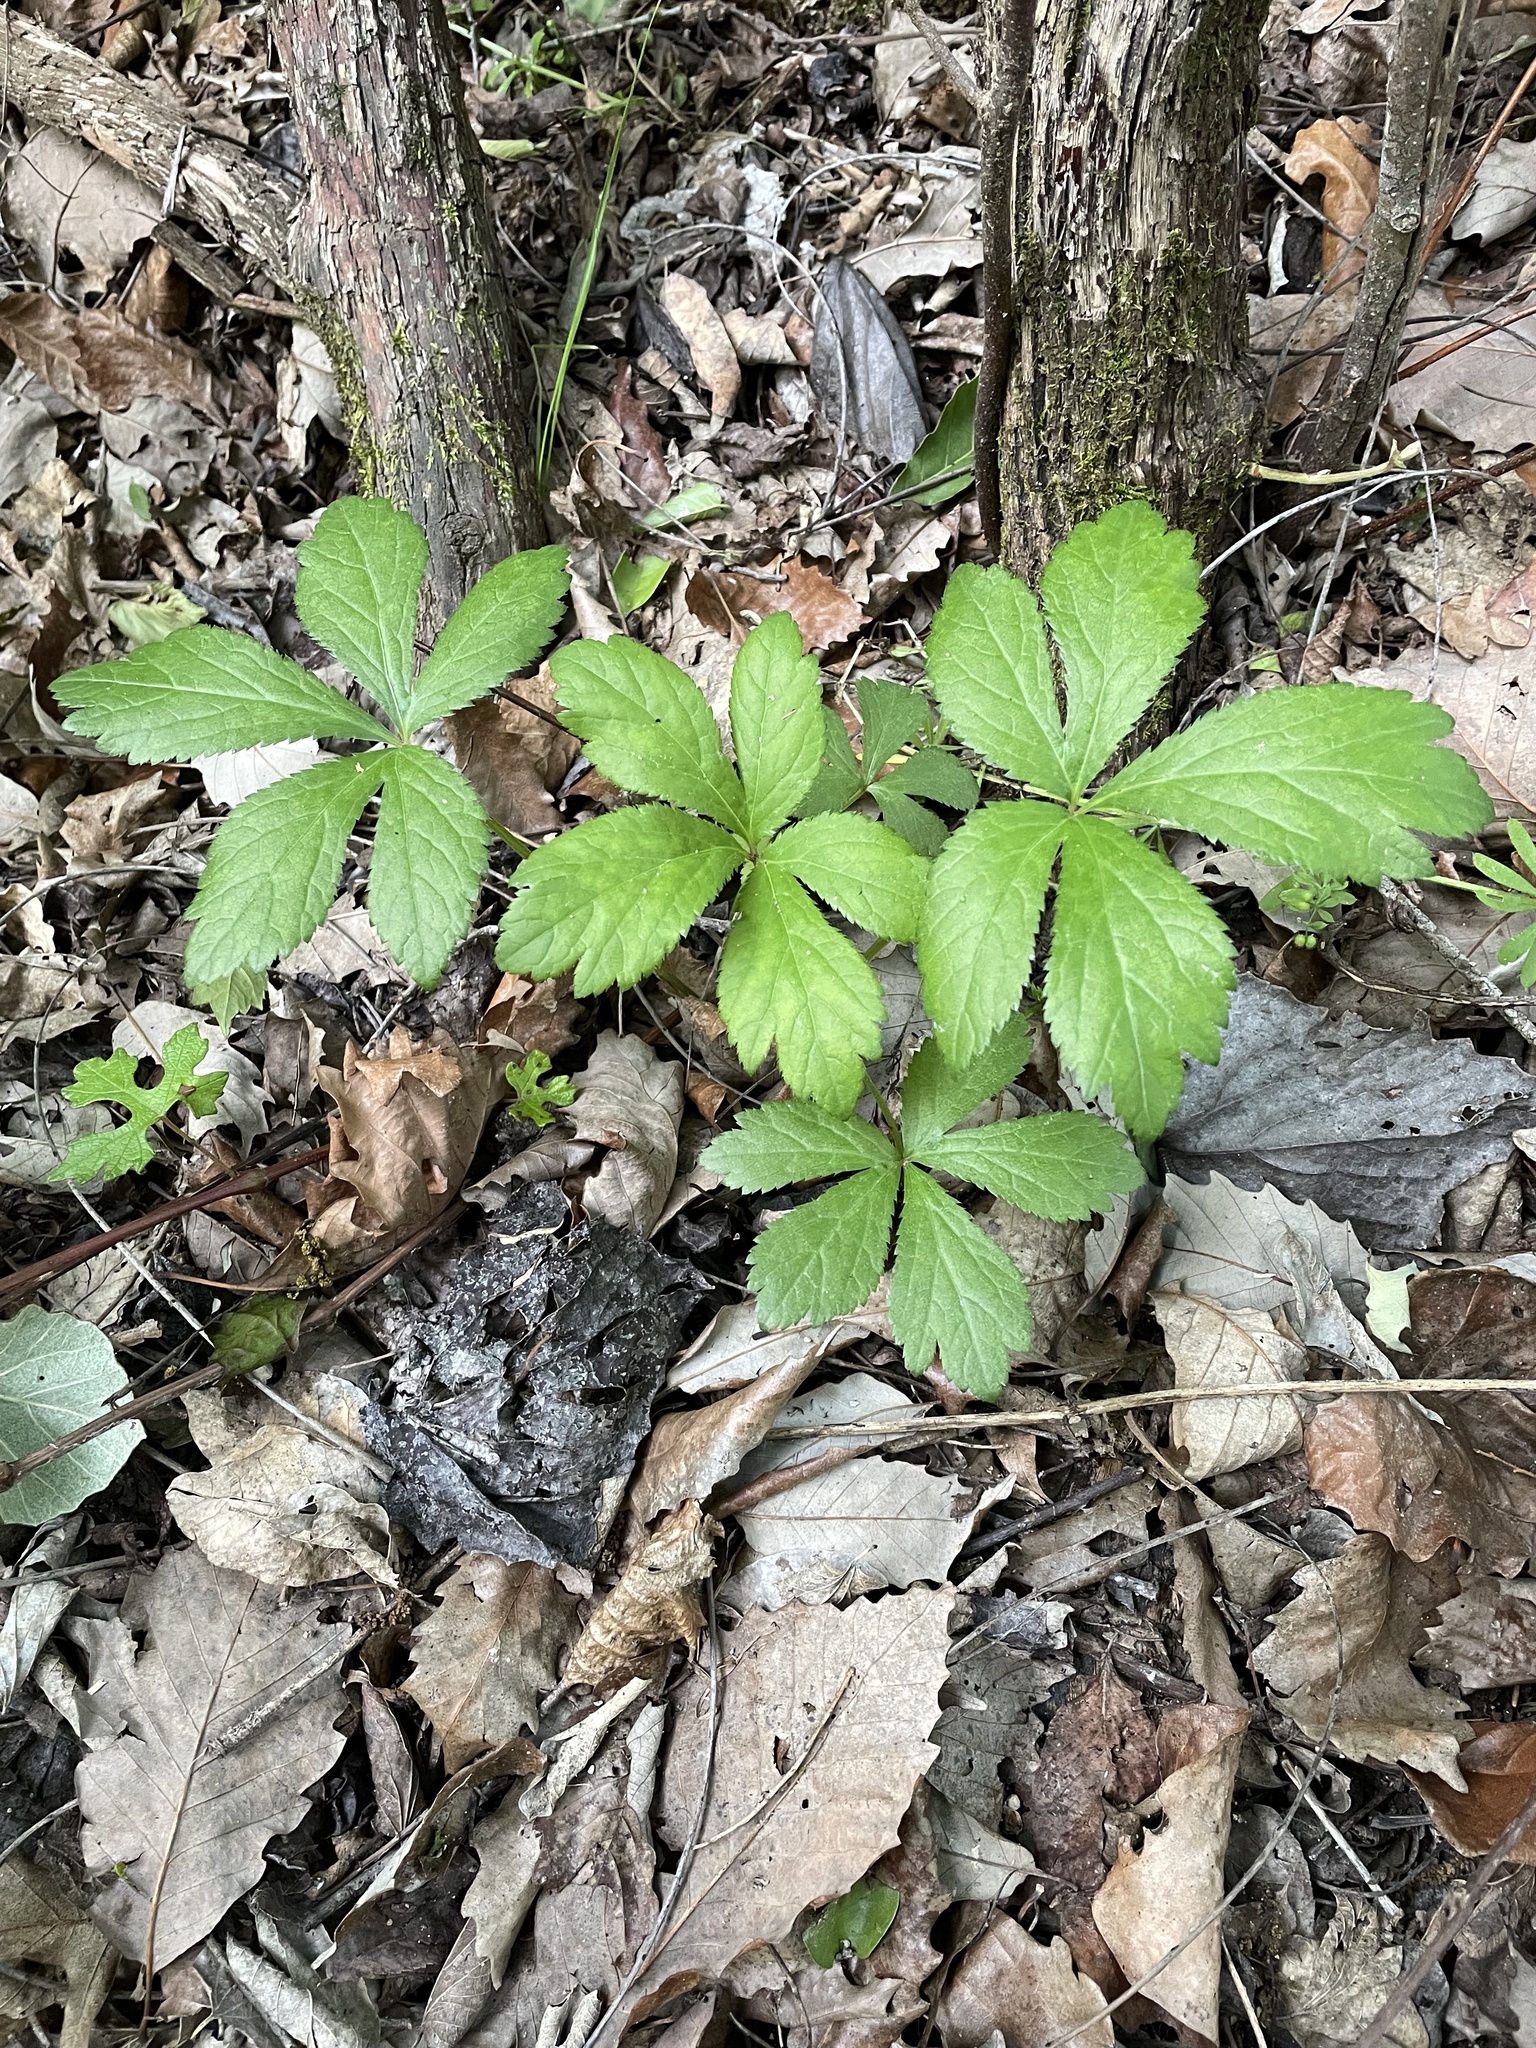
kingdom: Plantae
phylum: Tracheophyta
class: Magnoliopsida
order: Apiales
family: Apiaceae
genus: Sanicula
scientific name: Sanicula canadensis
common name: Canada sanicle
